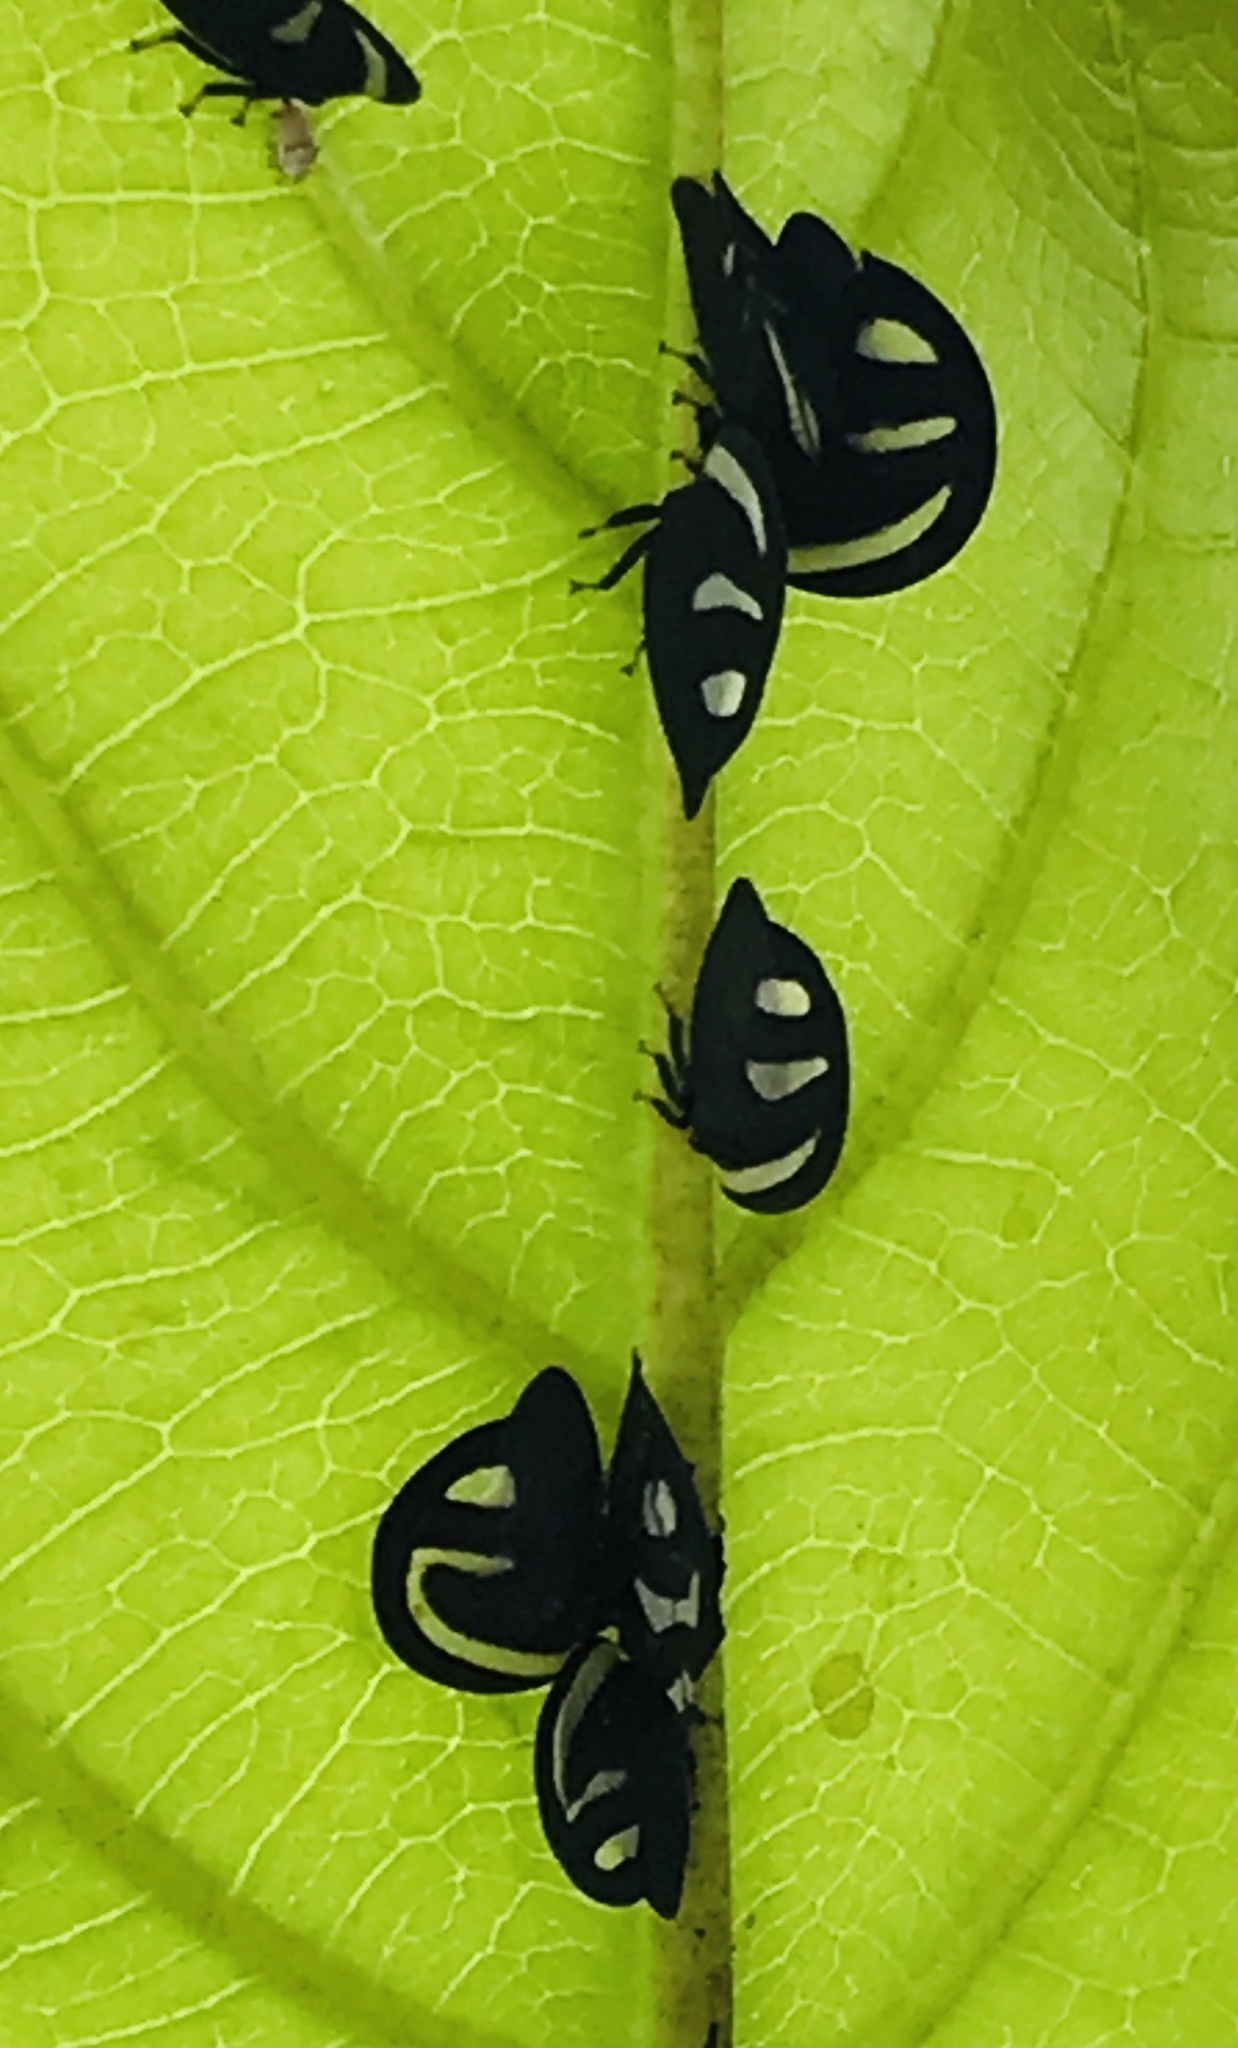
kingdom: Animalia
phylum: Arthropoda
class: Insecta
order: Hemiptera
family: Membracidae
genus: Membracis
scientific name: Membracis
